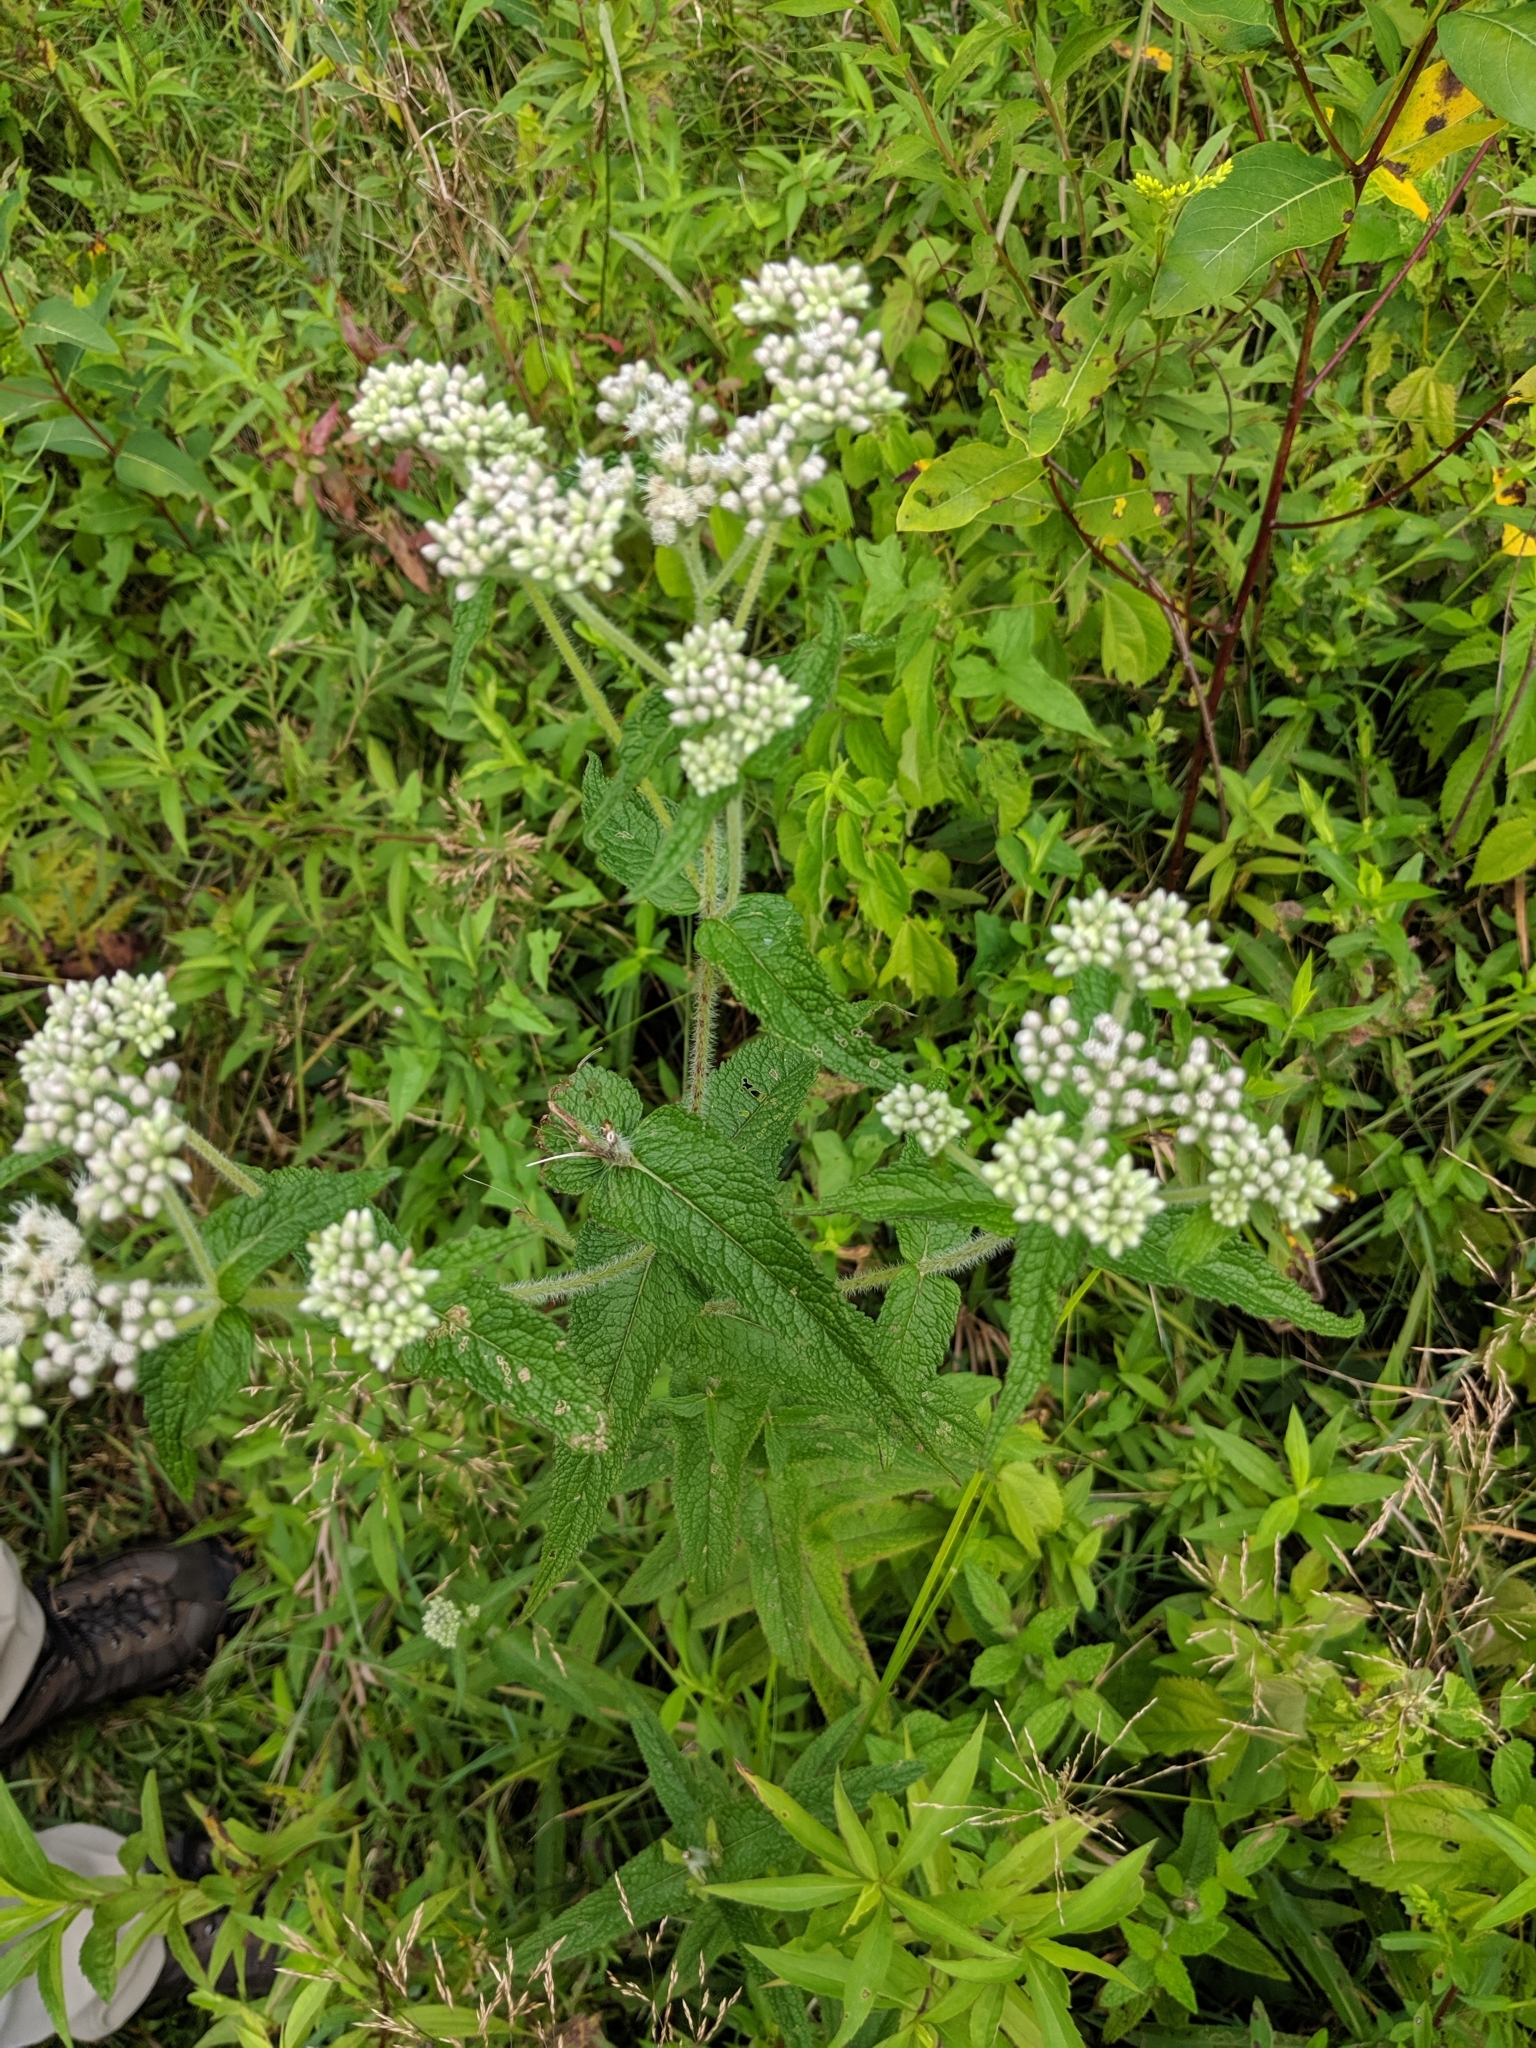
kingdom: Plantae
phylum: Tracheophyta
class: Magnoliopsida
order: Asterales
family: Asteraceae
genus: Eupatorium
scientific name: Eupatorium perfoliatum
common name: Boneset
